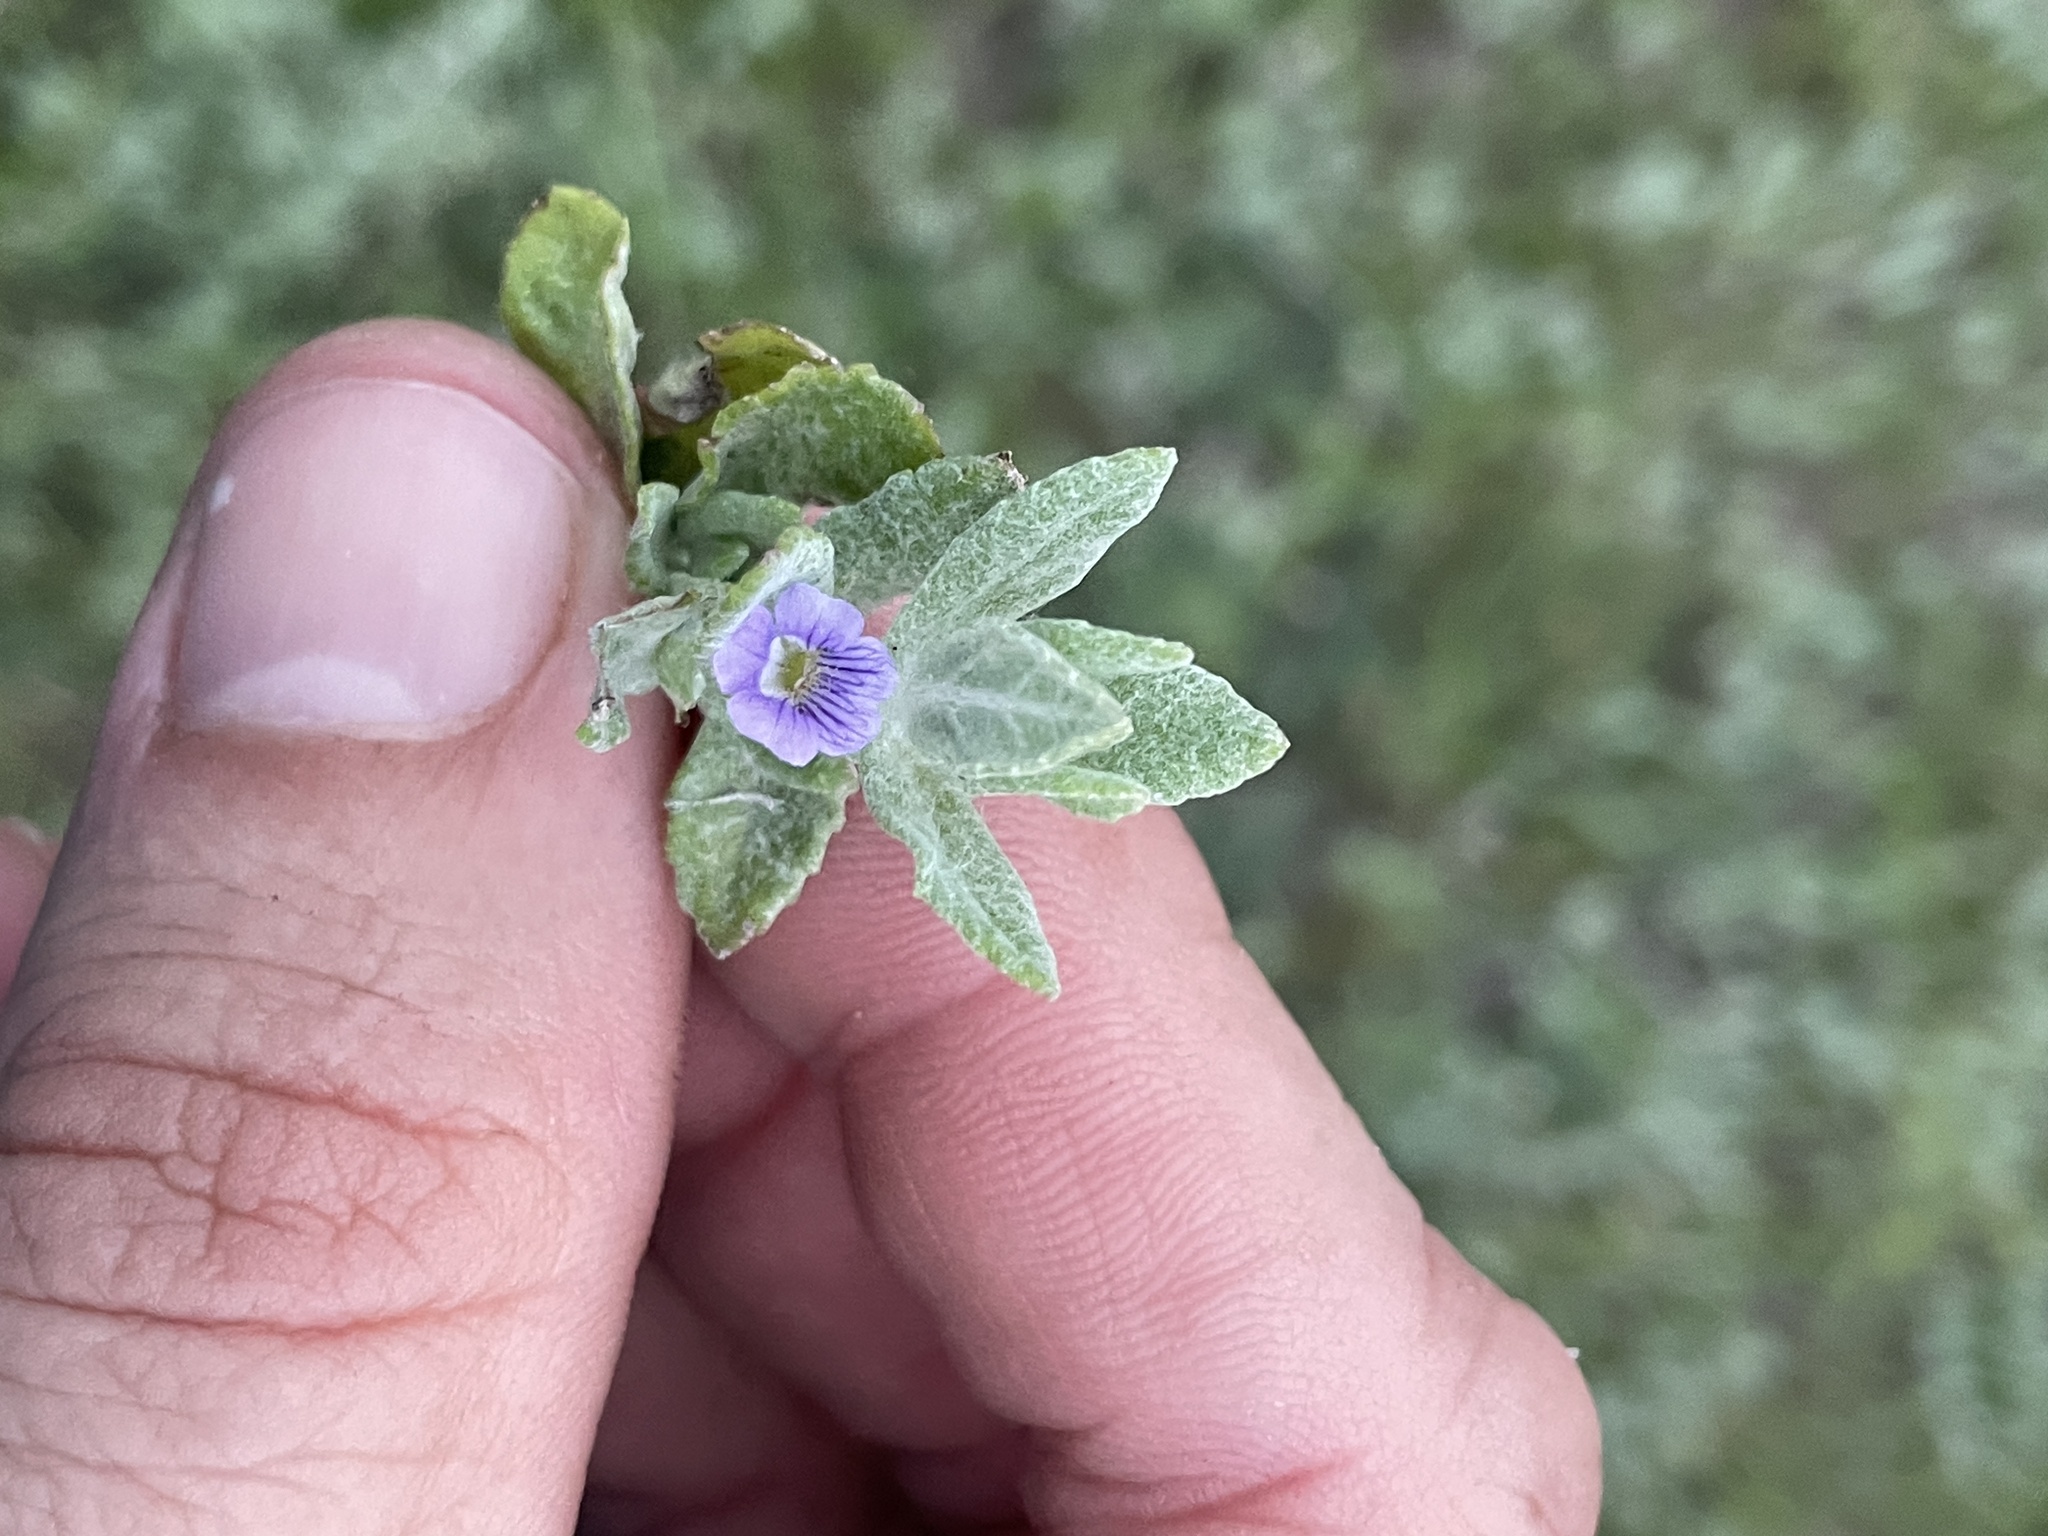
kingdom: Plantae
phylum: Tracheophyta
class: Magnoliopsida
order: Lamiales
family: Plantaginaceae
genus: Stemodia
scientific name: Stemodia lanata
